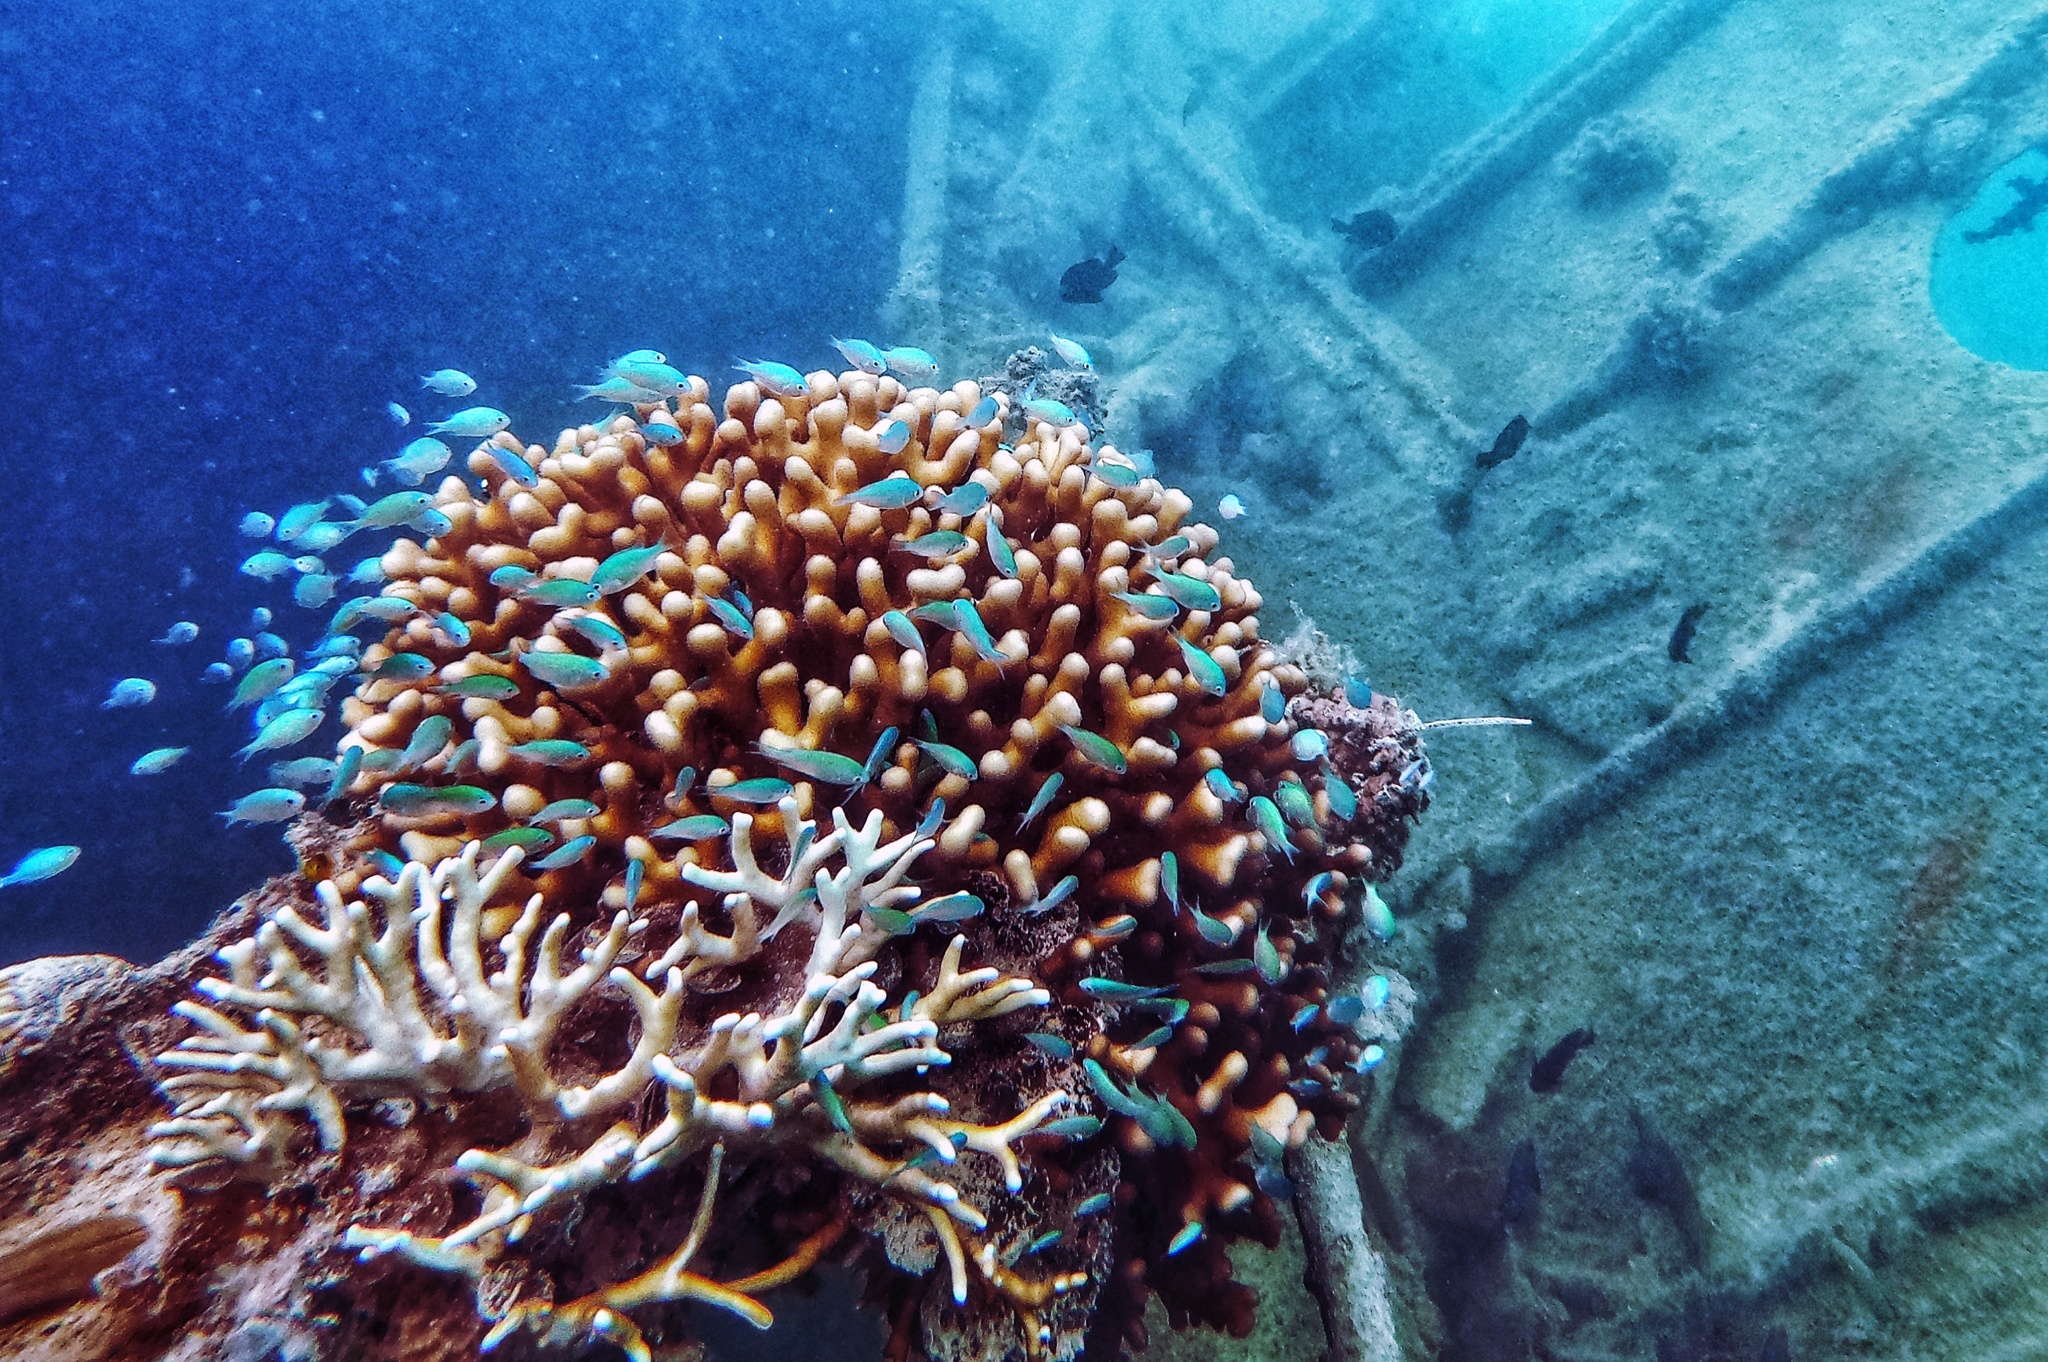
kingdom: Animalia
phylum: Chordata
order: Perciformes
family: Pomacentridae
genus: Chromis
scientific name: Chromis viridis
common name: Blue-green chromis
